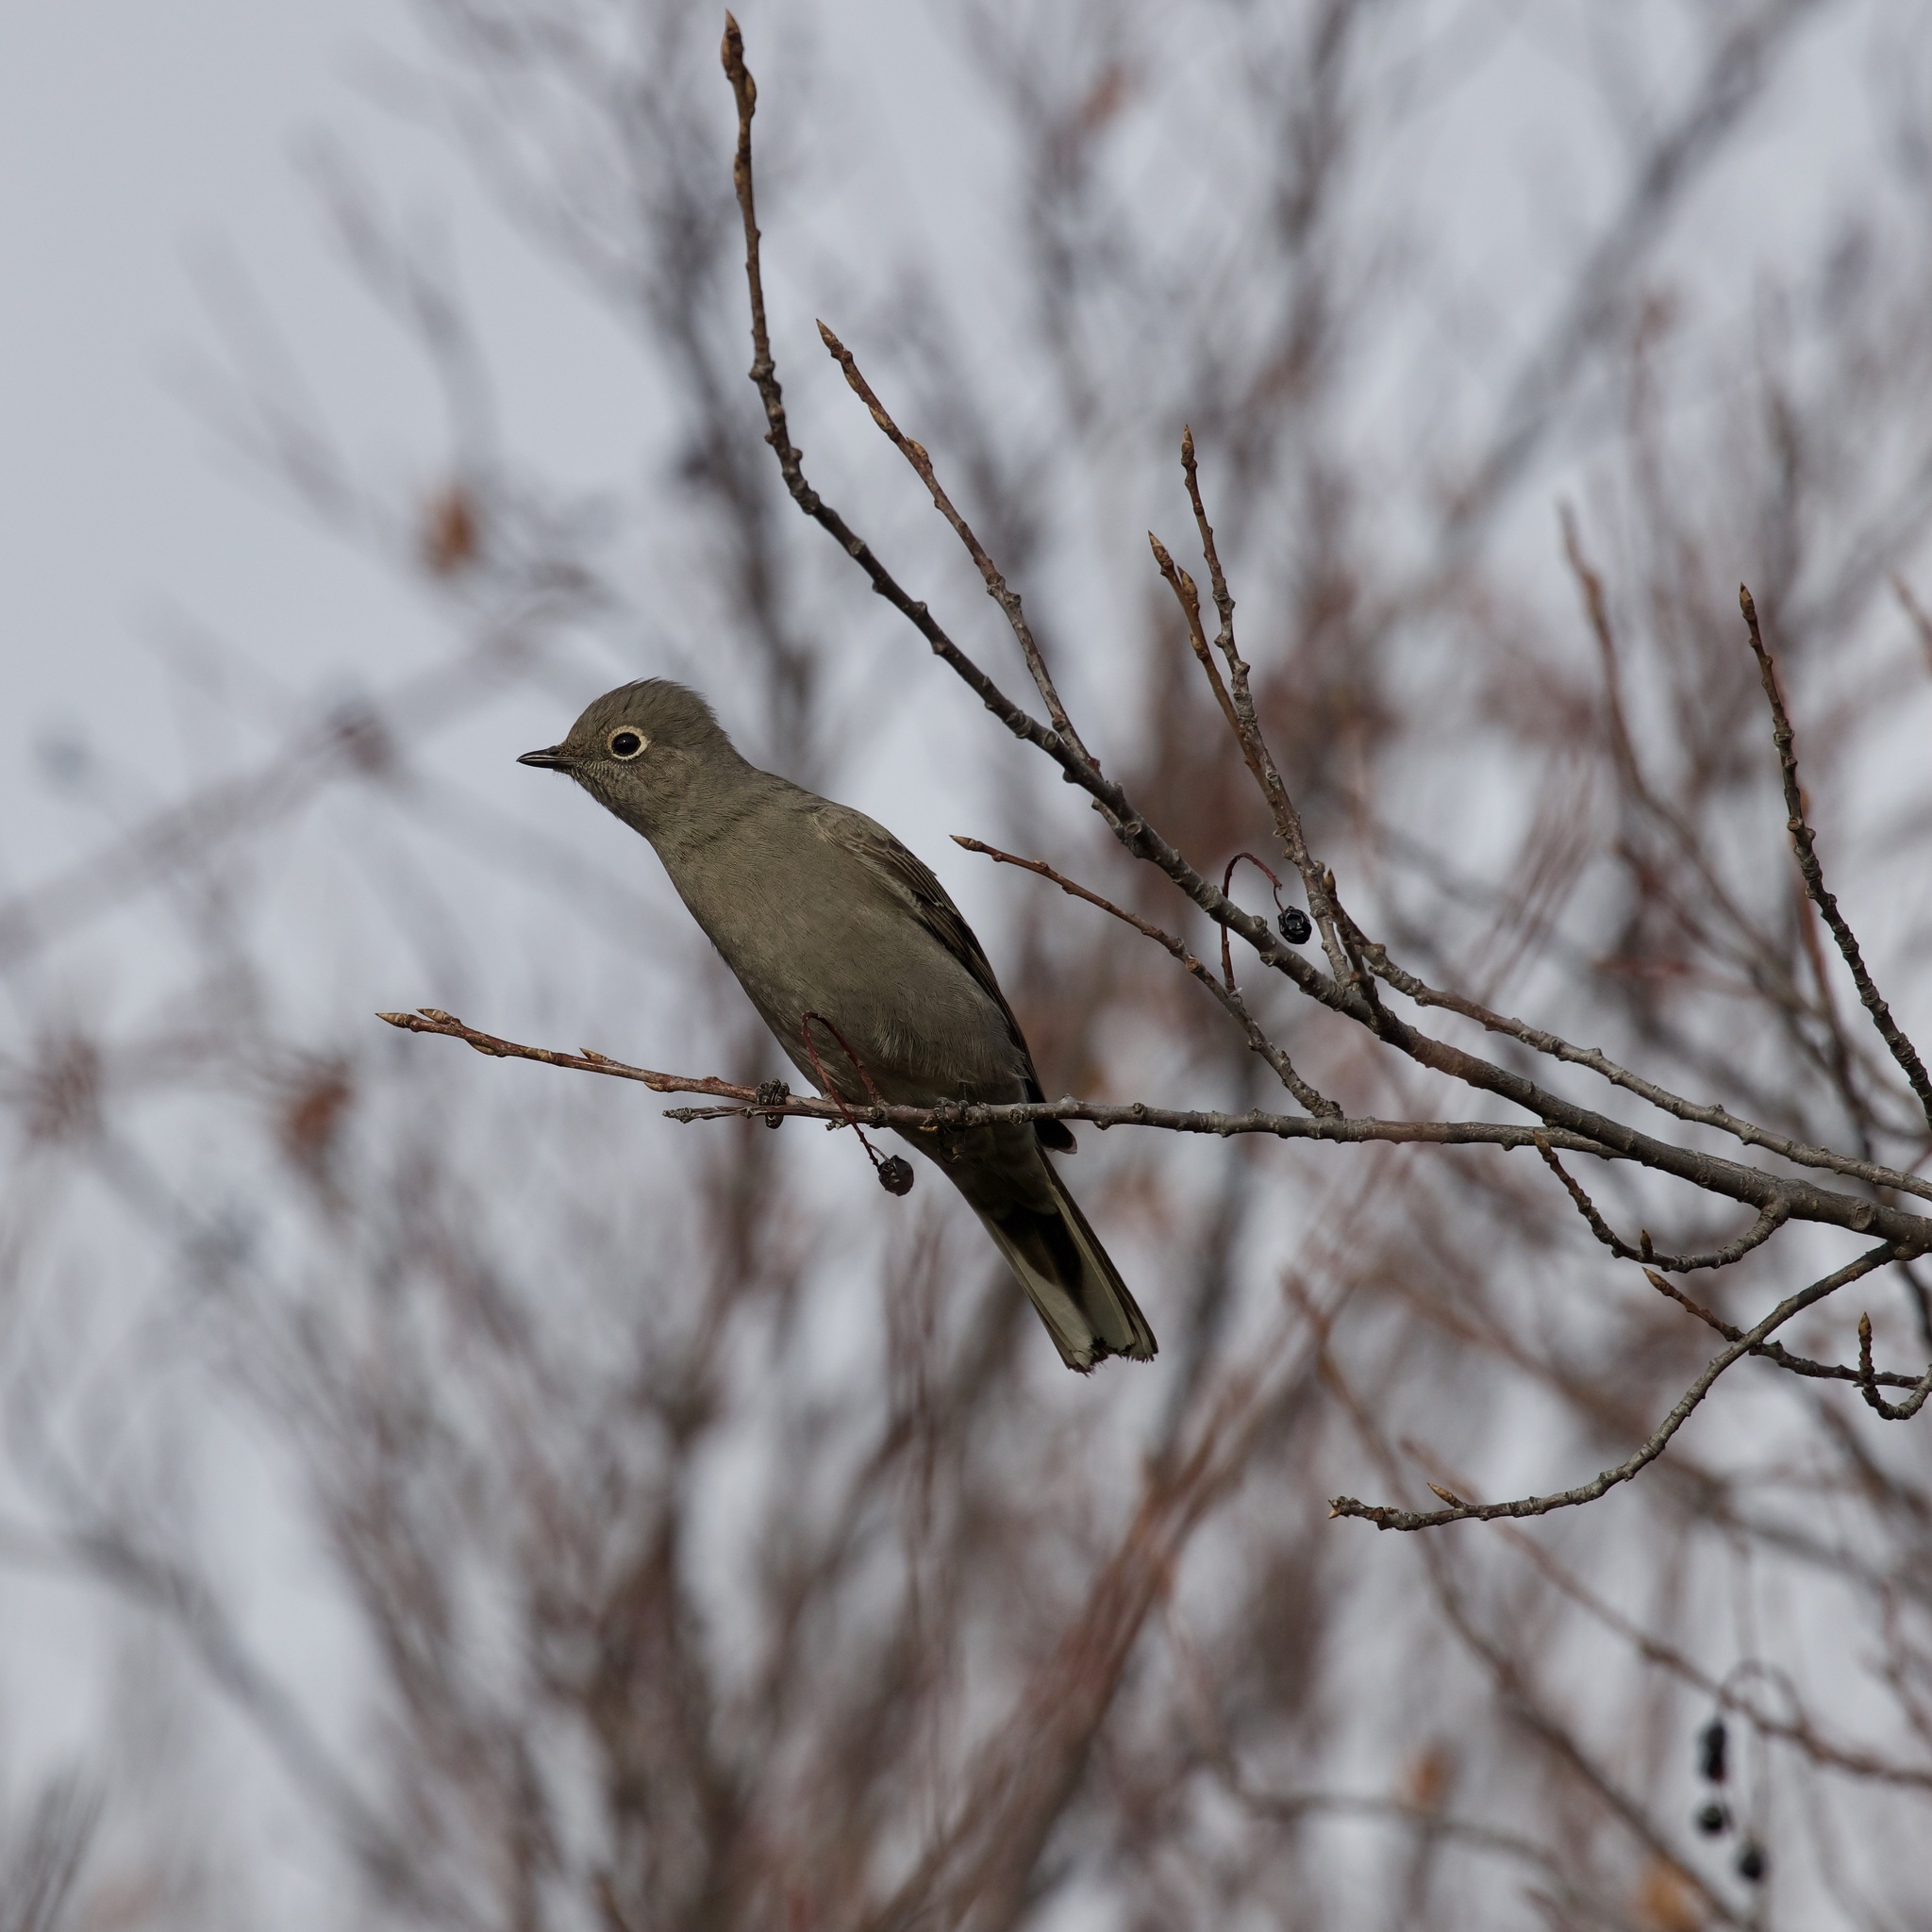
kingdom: Animalia
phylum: Chordata
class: Aves
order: Passeriformes
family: Turdidae
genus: Myadestes
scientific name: Myadestes townsendi
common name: Townsend's solitaire
